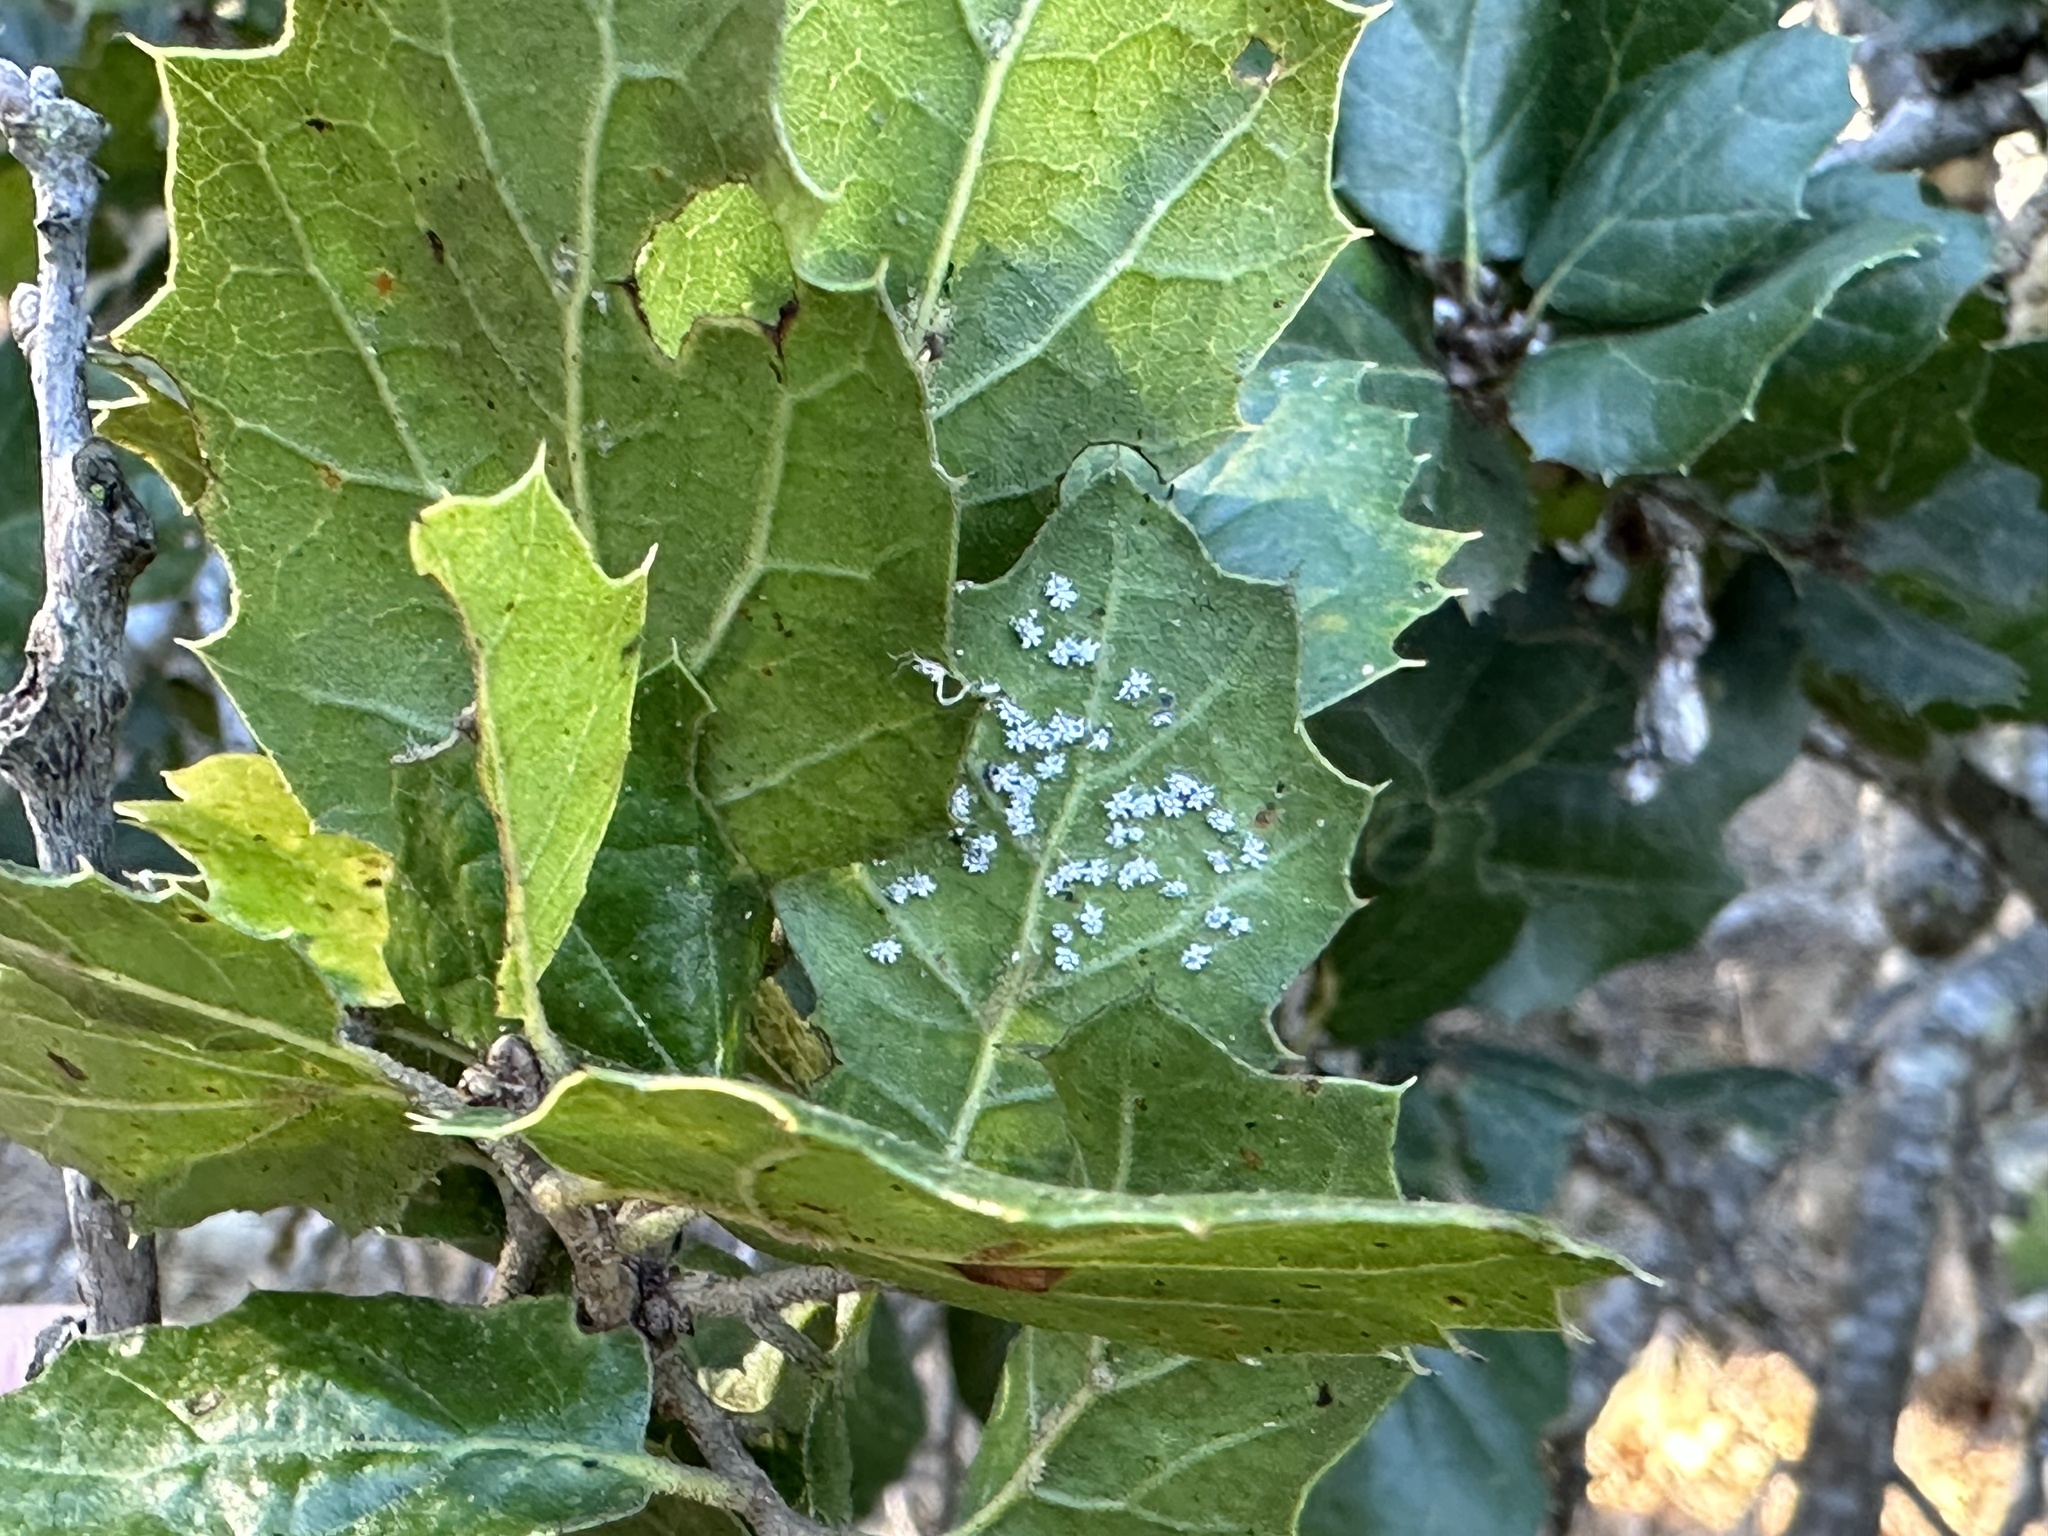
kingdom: Animalia
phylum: Arthropoda
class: Insecta
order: Hemiptera
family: Aleyrodidae
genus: Aleuroplatus
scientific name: Aleuroplatus coronata
